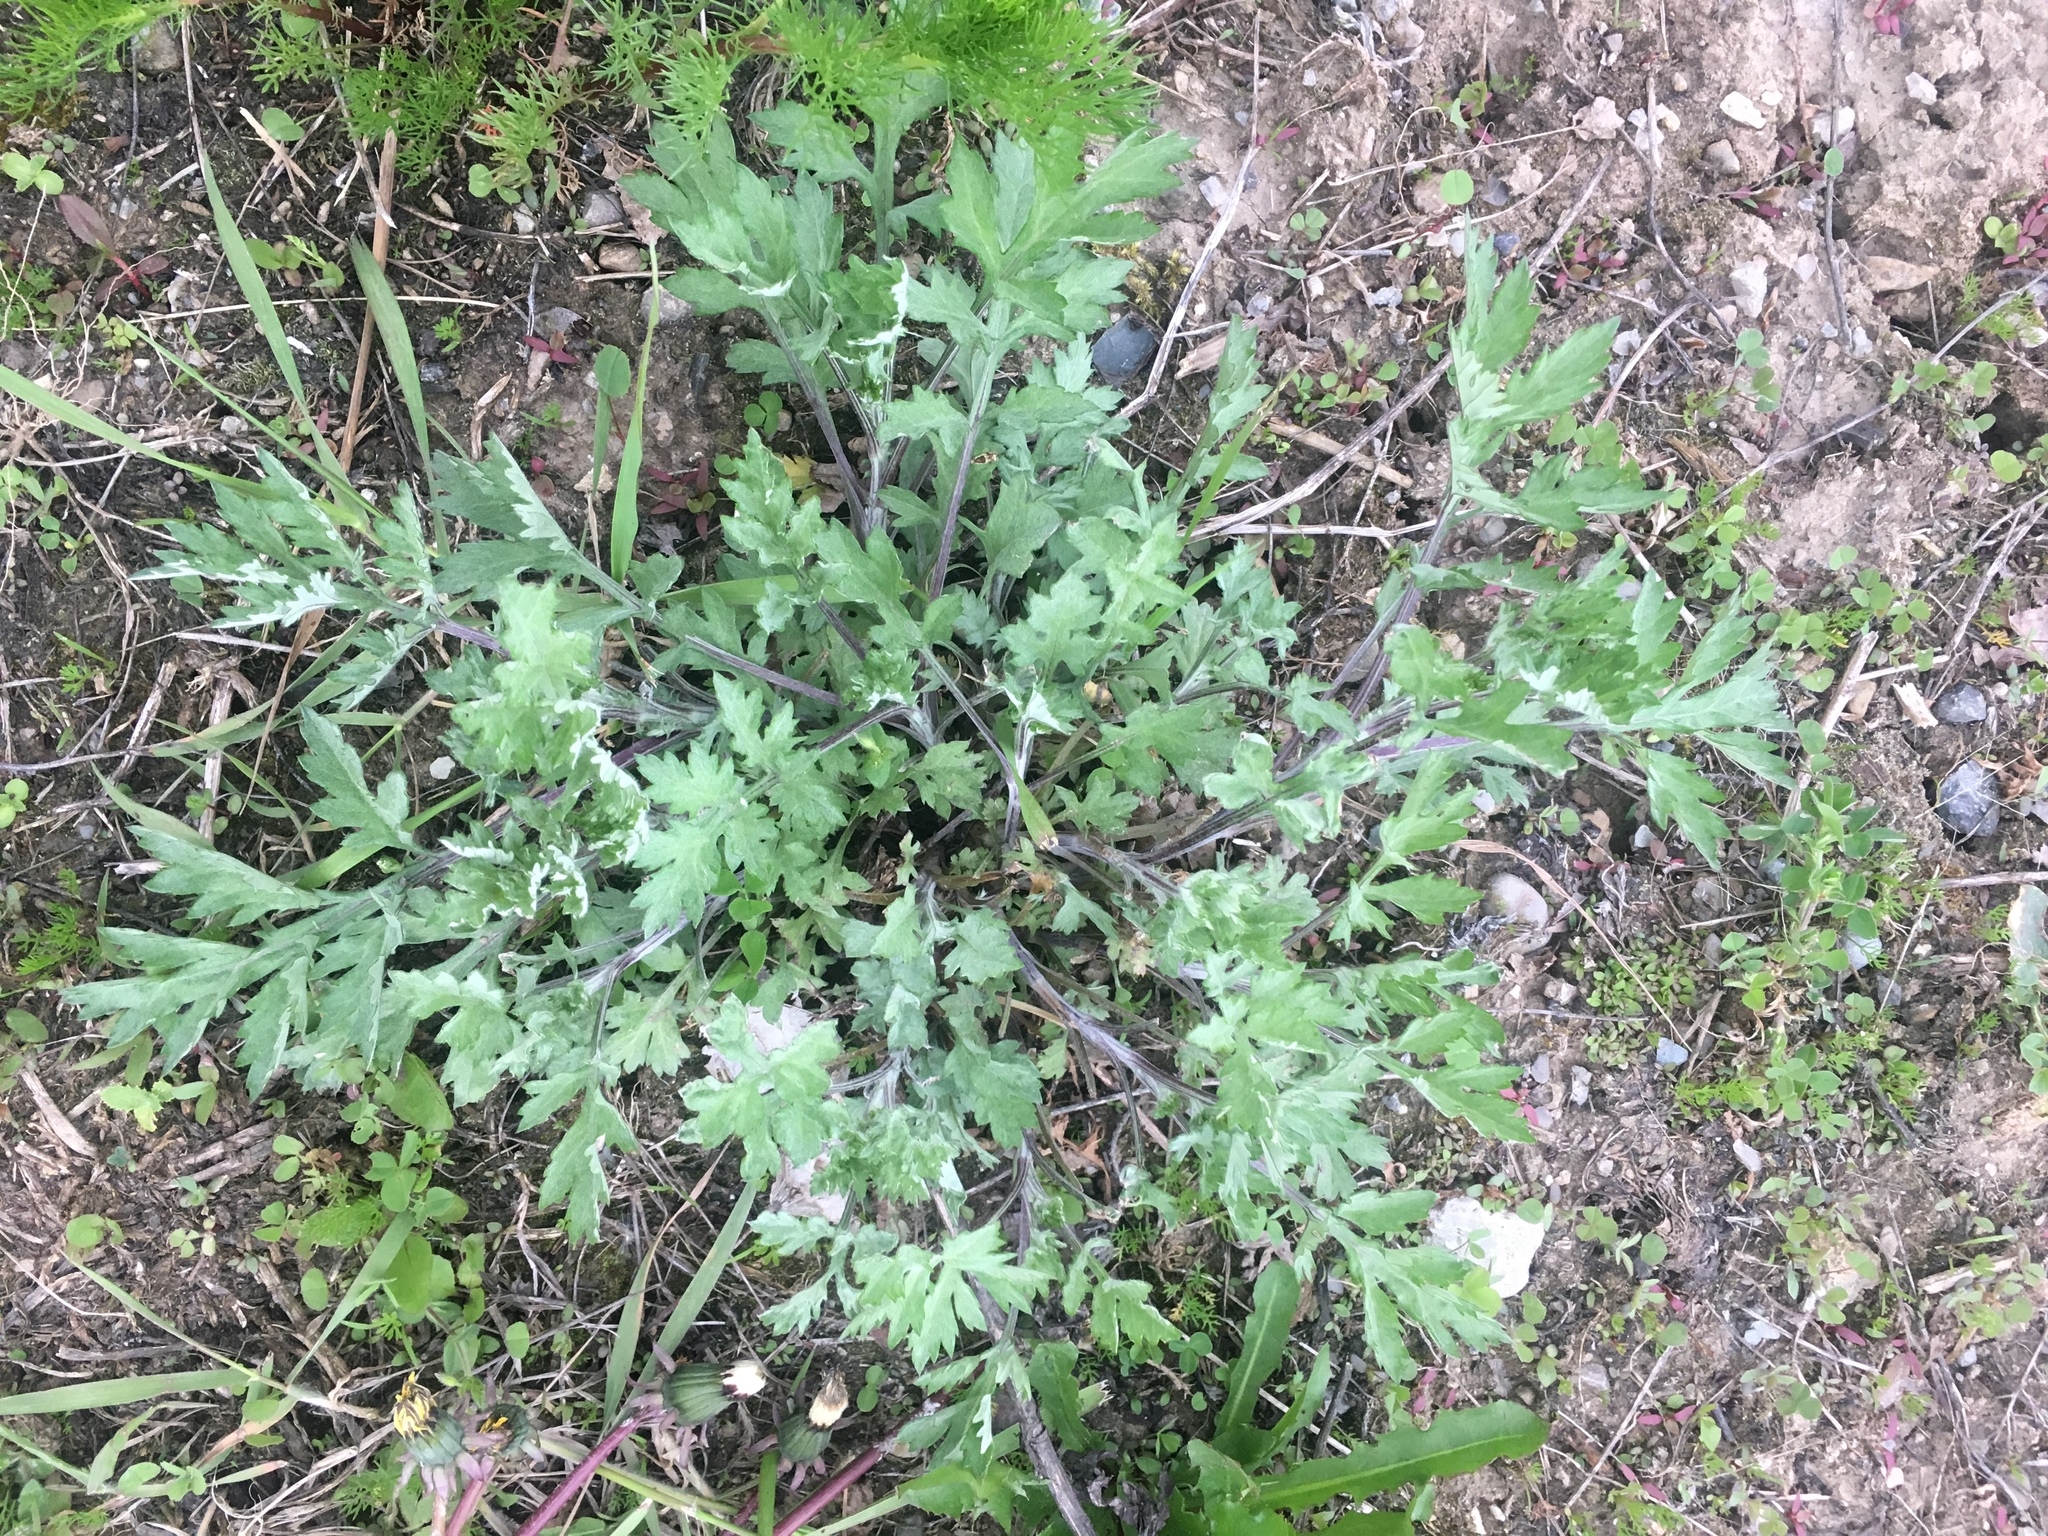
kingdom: Plantae
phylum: Tracheophyta
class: Magnoliopsida
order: Asterales
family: Asteraceae
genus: Artemisia
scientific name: Artemisia vulgaris
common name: Mugwort
